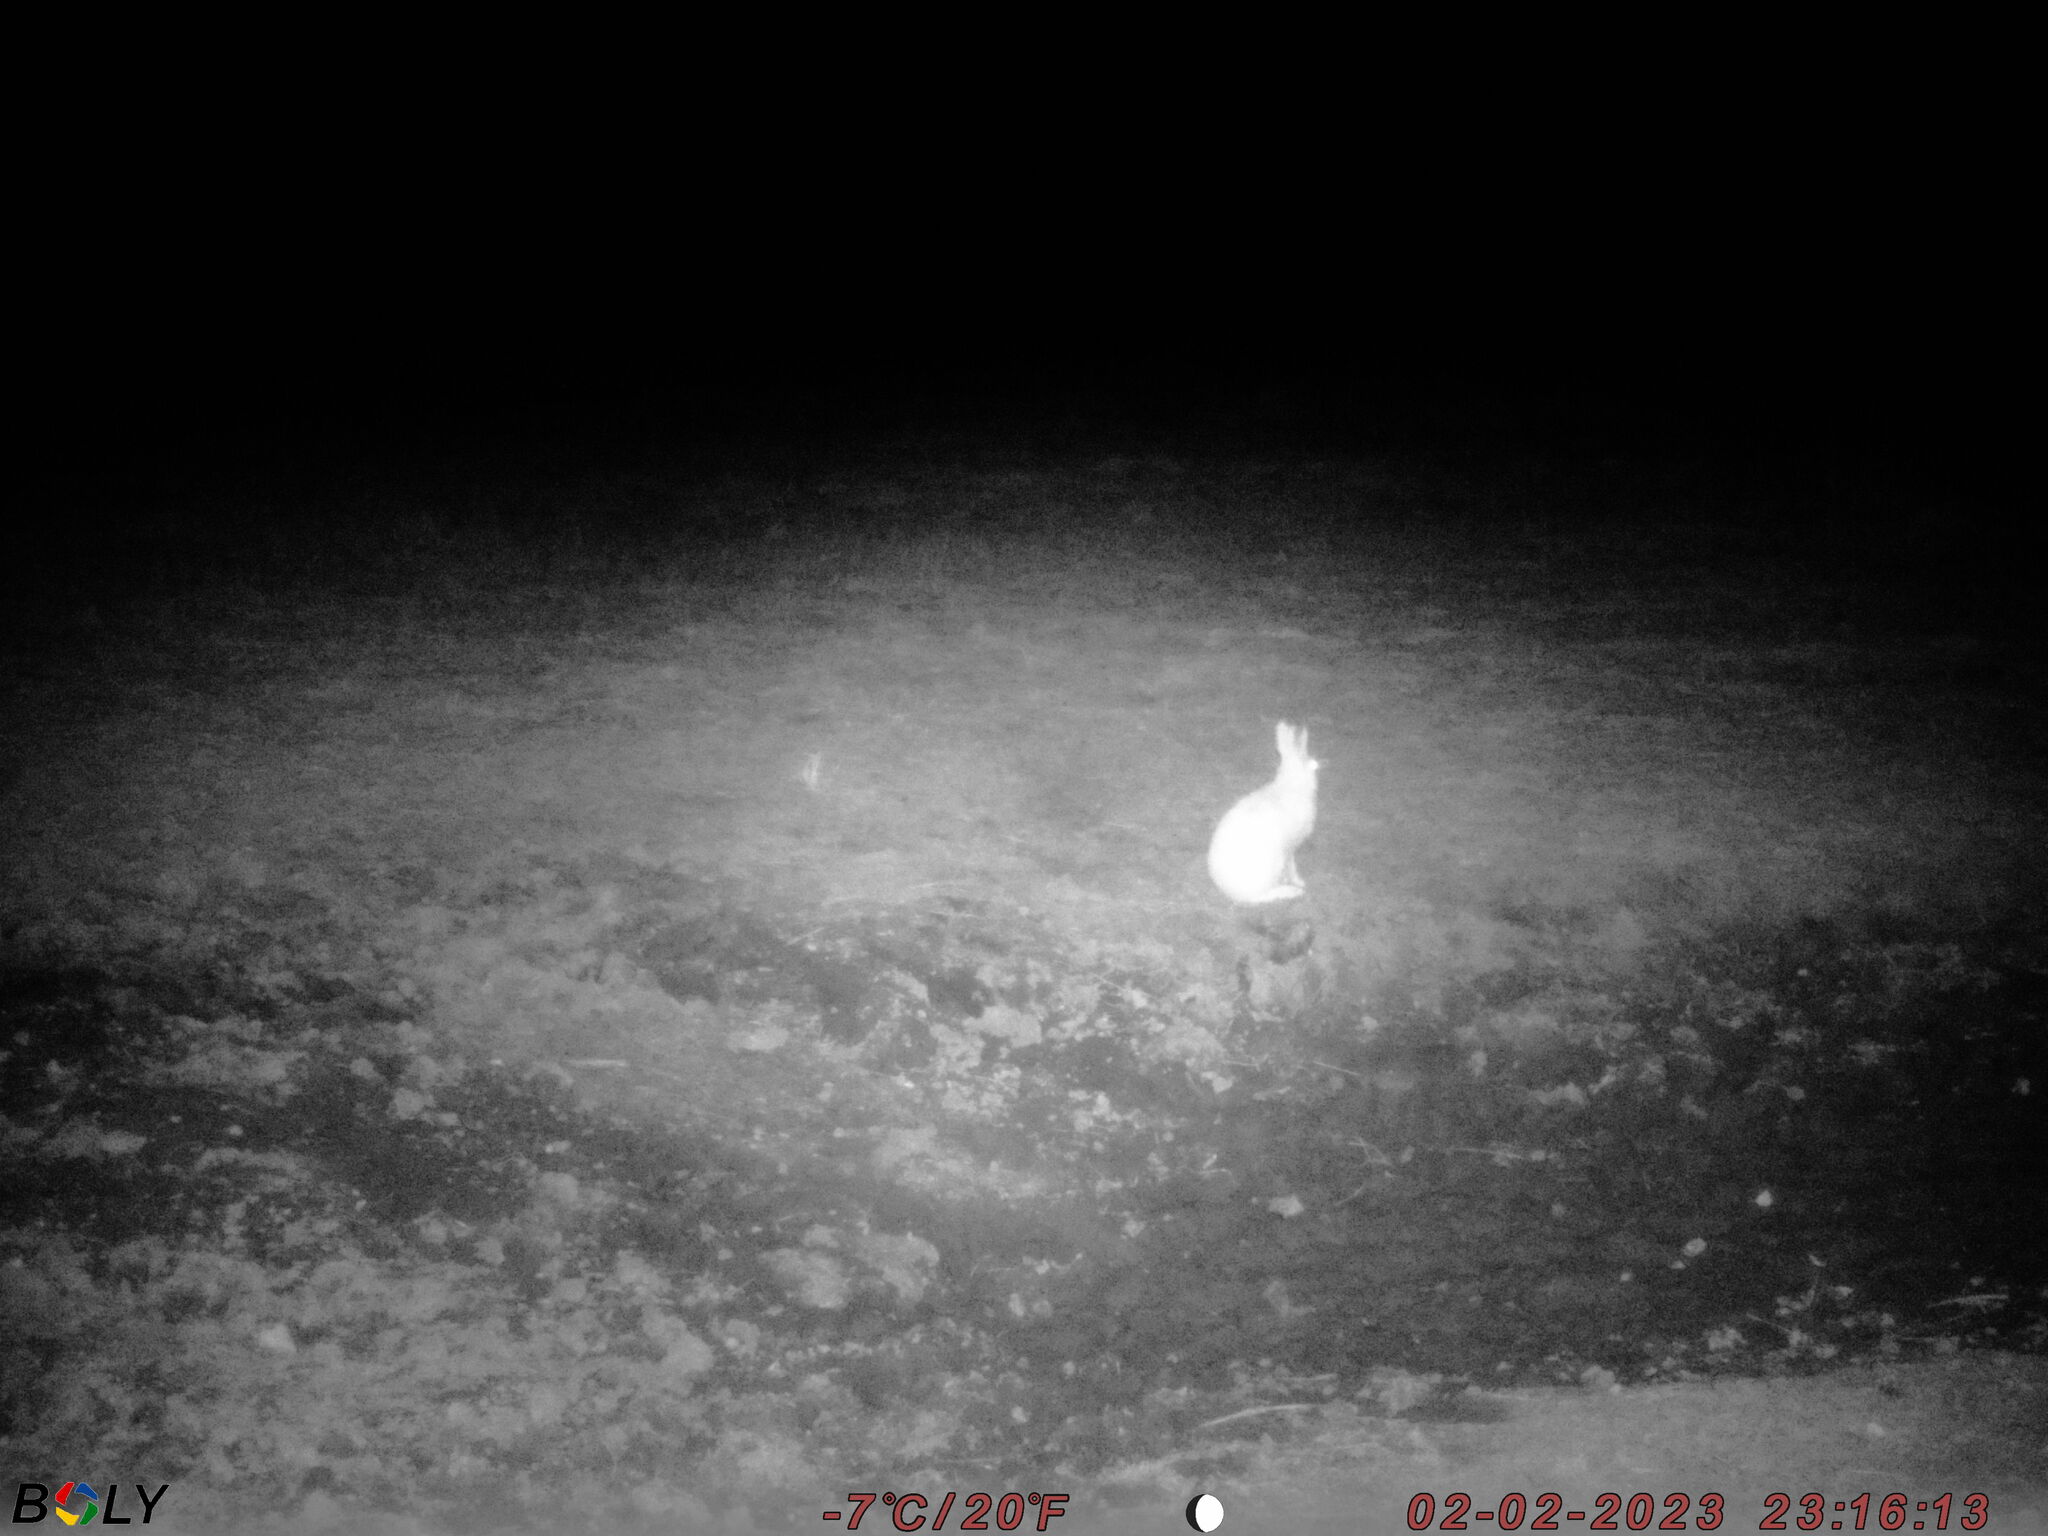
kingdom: Animalia
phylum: Chordata
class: Mammalia
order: Lagomorpha
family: Leporidae
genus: Lepus
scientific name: Lepus timidus
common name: Mountain hare
